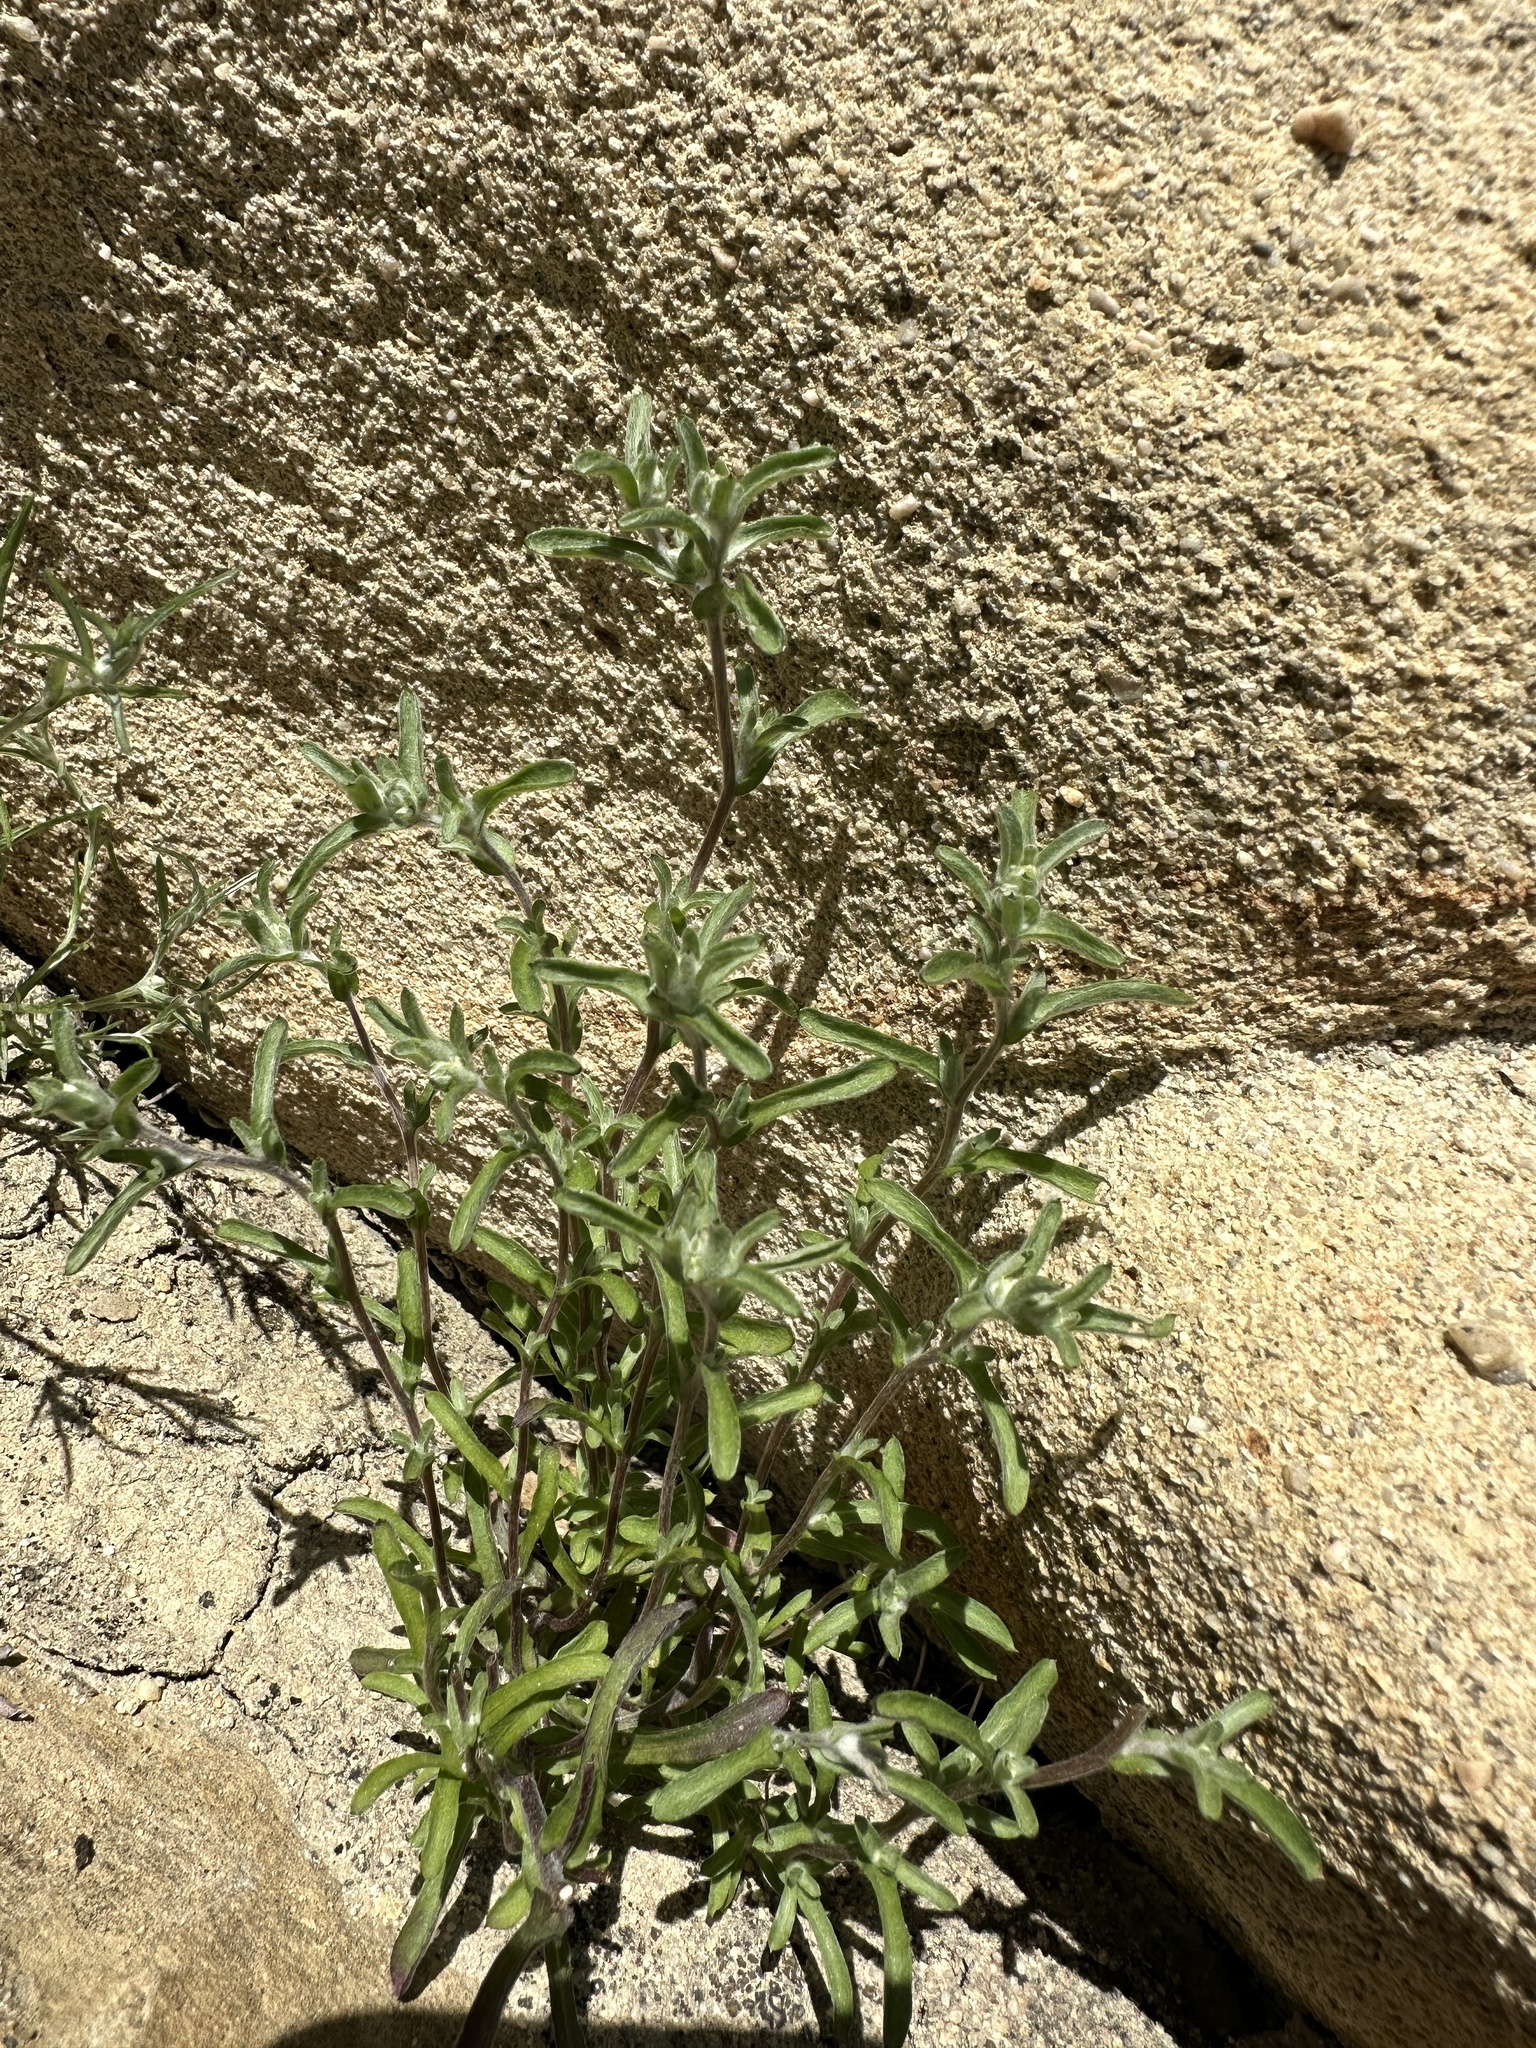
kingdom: Plantae
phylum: Tracheophyta
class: Magnoliopsida
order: Asterales
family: Asteraceae
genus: Logfia
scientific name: Logfia californica
